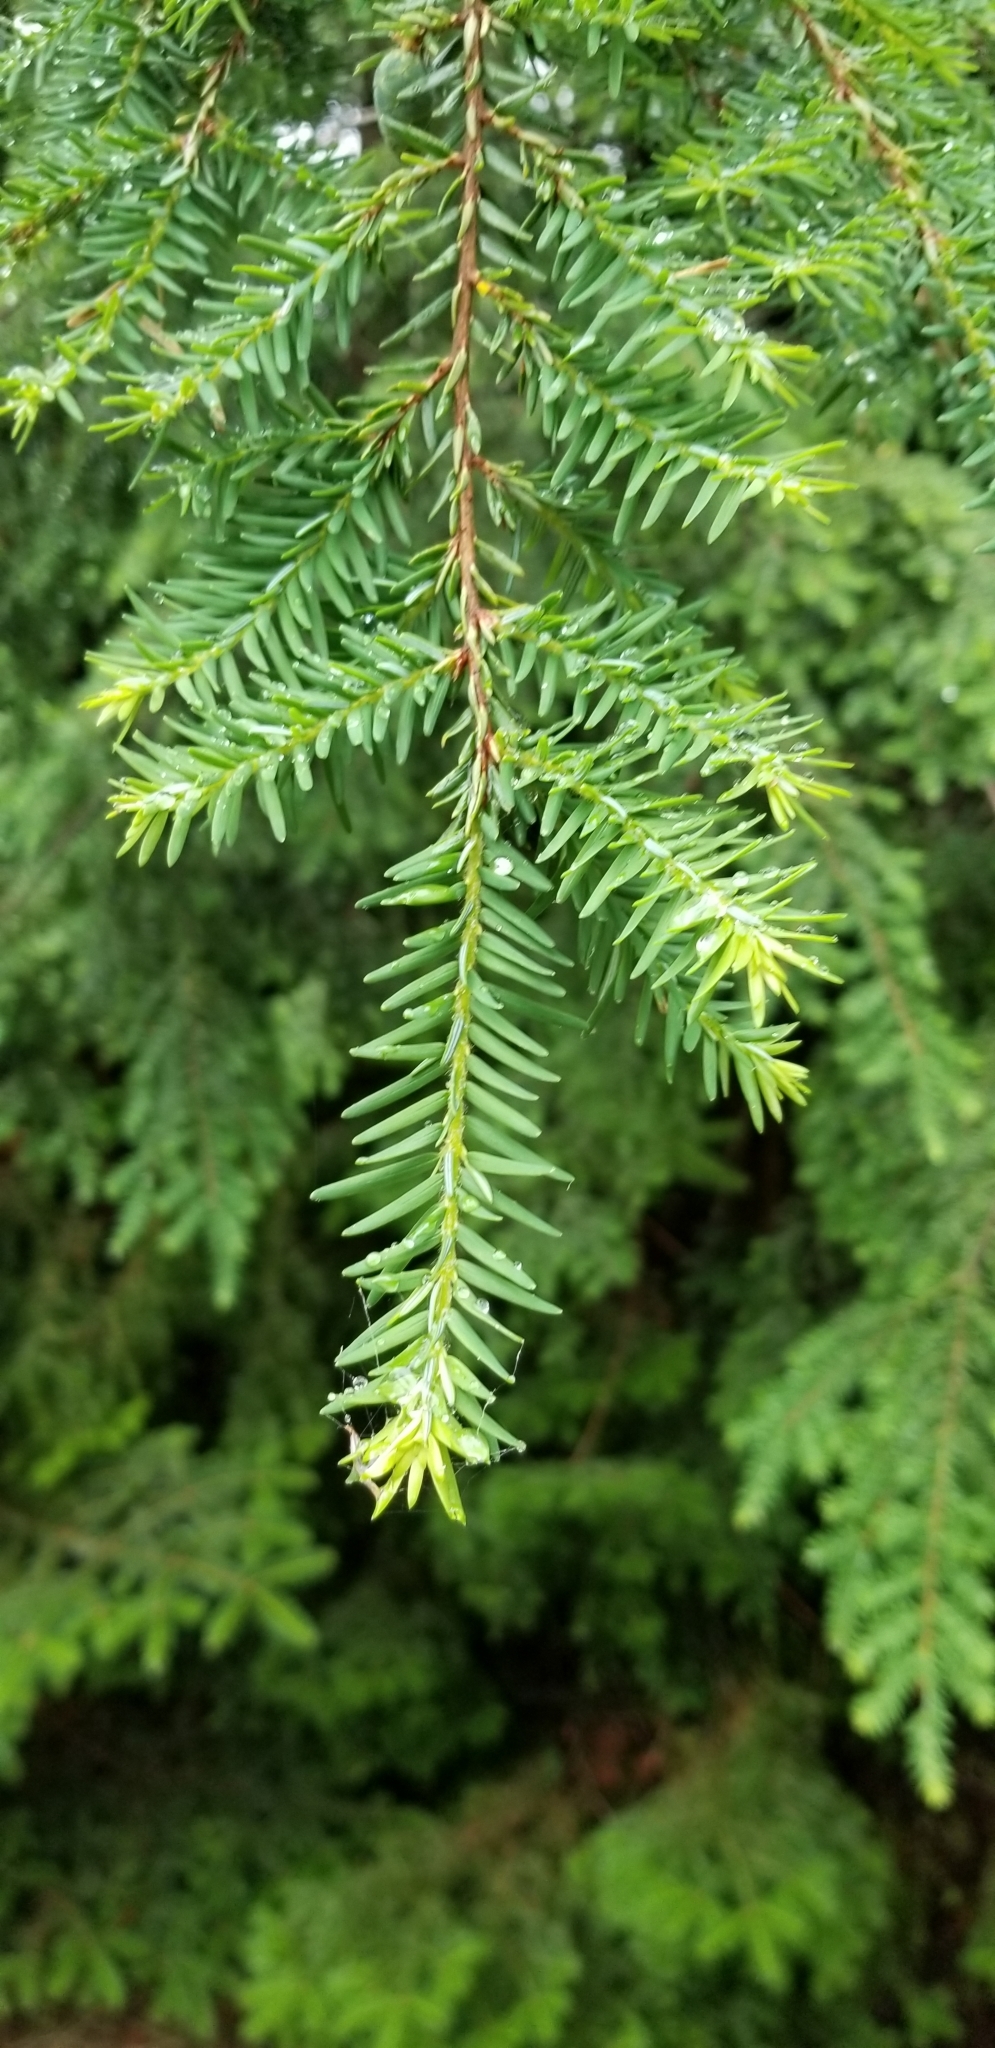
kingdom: Plantae
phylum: Tracheophyta
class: Pinopsida
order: Pinales
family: Pinaceae
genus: Tsuga
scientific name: Tsuga canadensis
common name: Eastern hemlock
